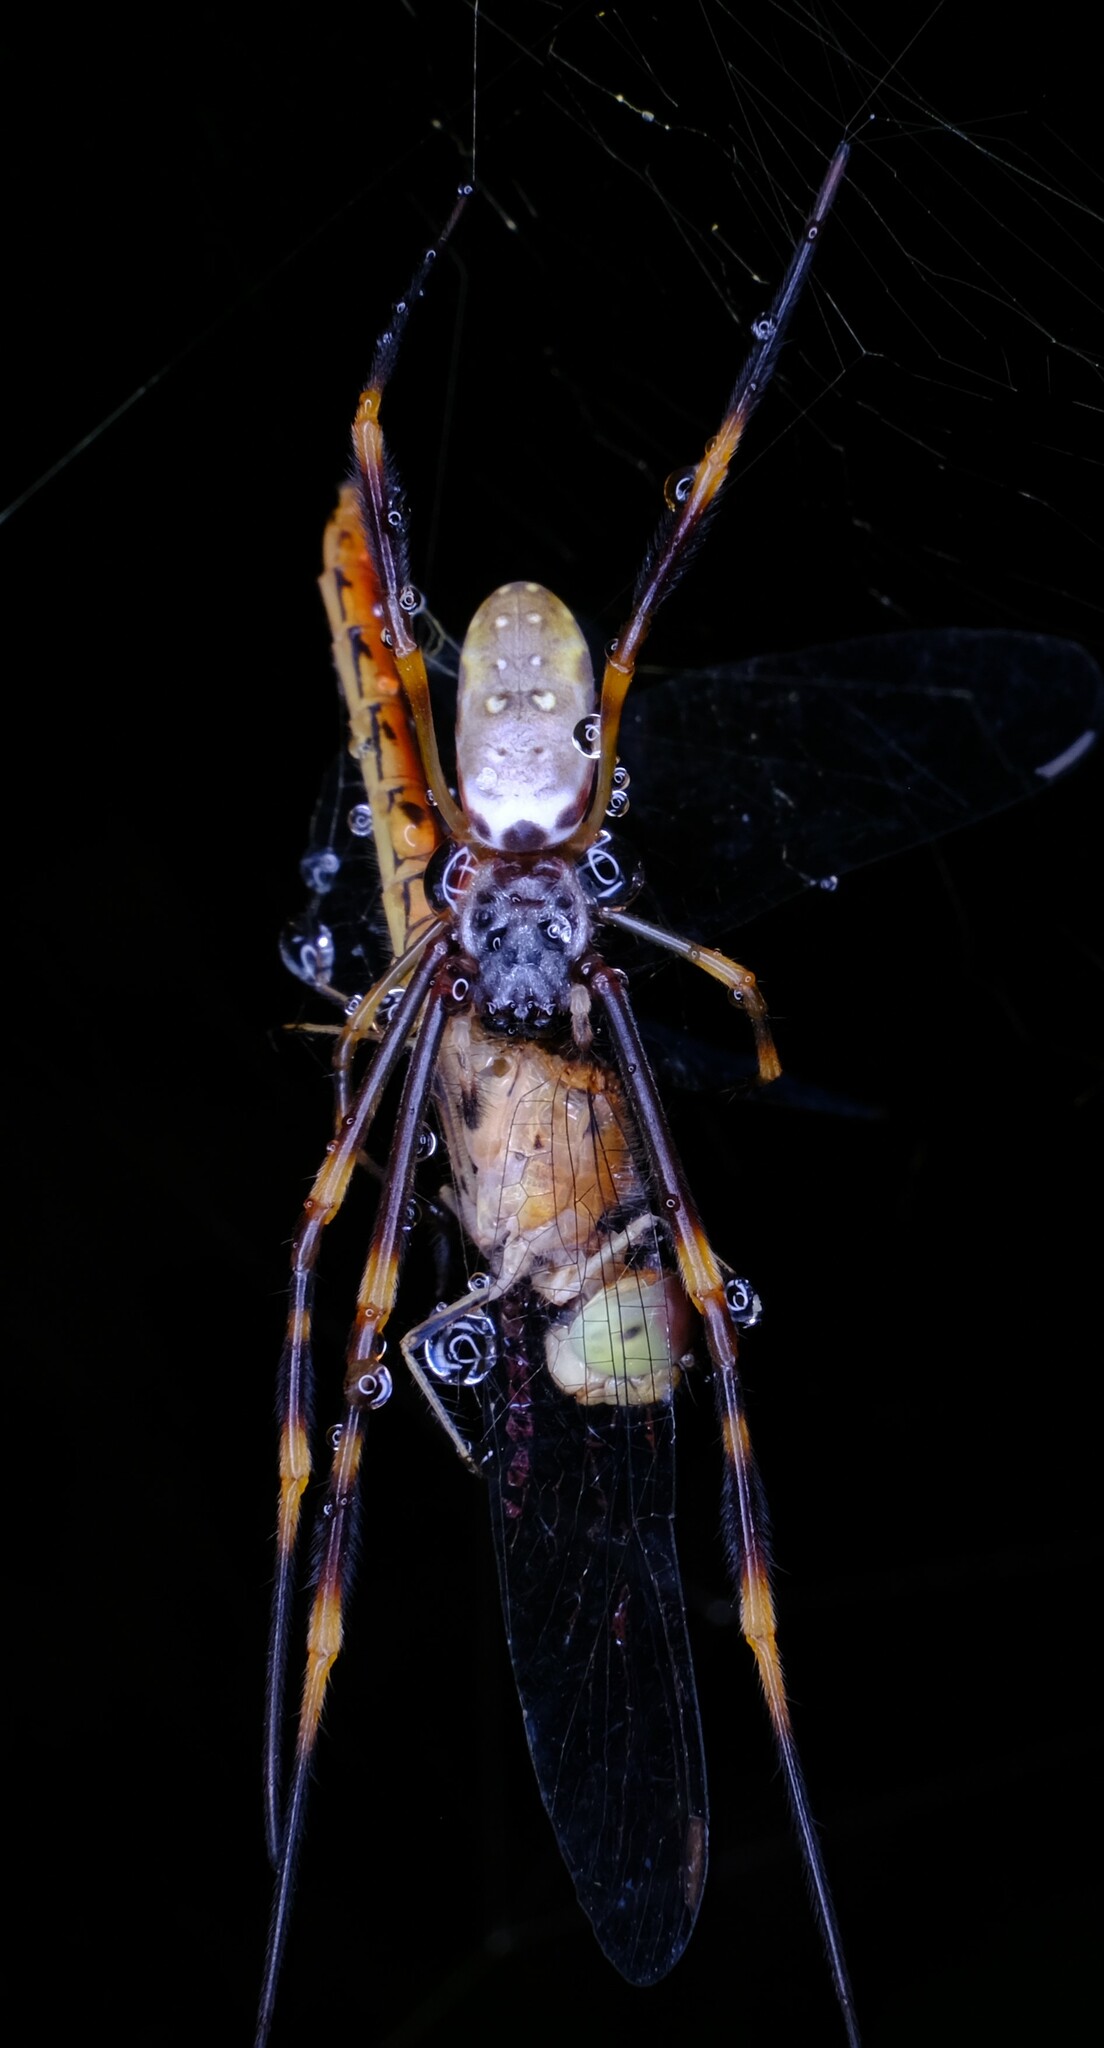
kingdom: Animalia
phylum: Arthropoda
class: Arachnida
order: Araneae
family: Araneidae
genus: Trichonephila
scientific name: Trichonephila plumipes
